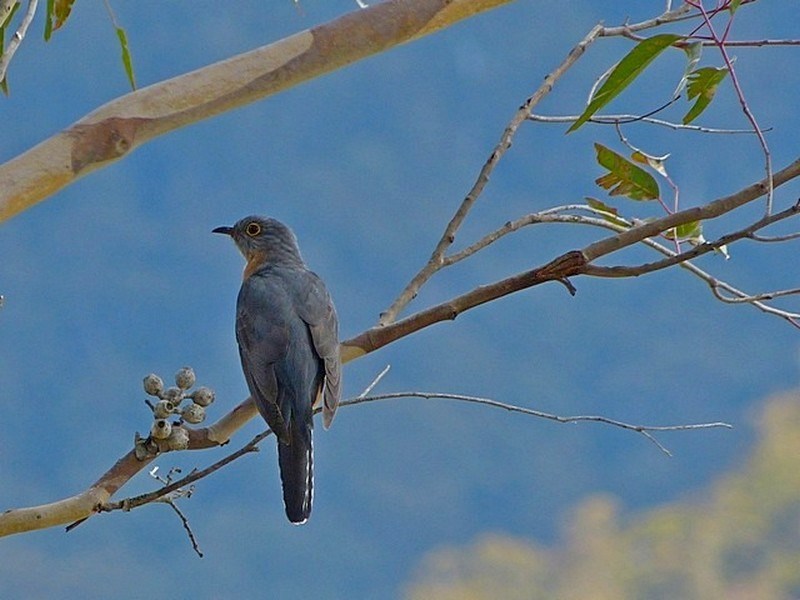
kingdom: Animalia
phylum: Chordata
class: Aves
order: Cuculiformes
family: Cuculidae
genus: Cacomantis
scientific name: Cacomantis flabelliformis
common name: Fan-tailed cuckoo
